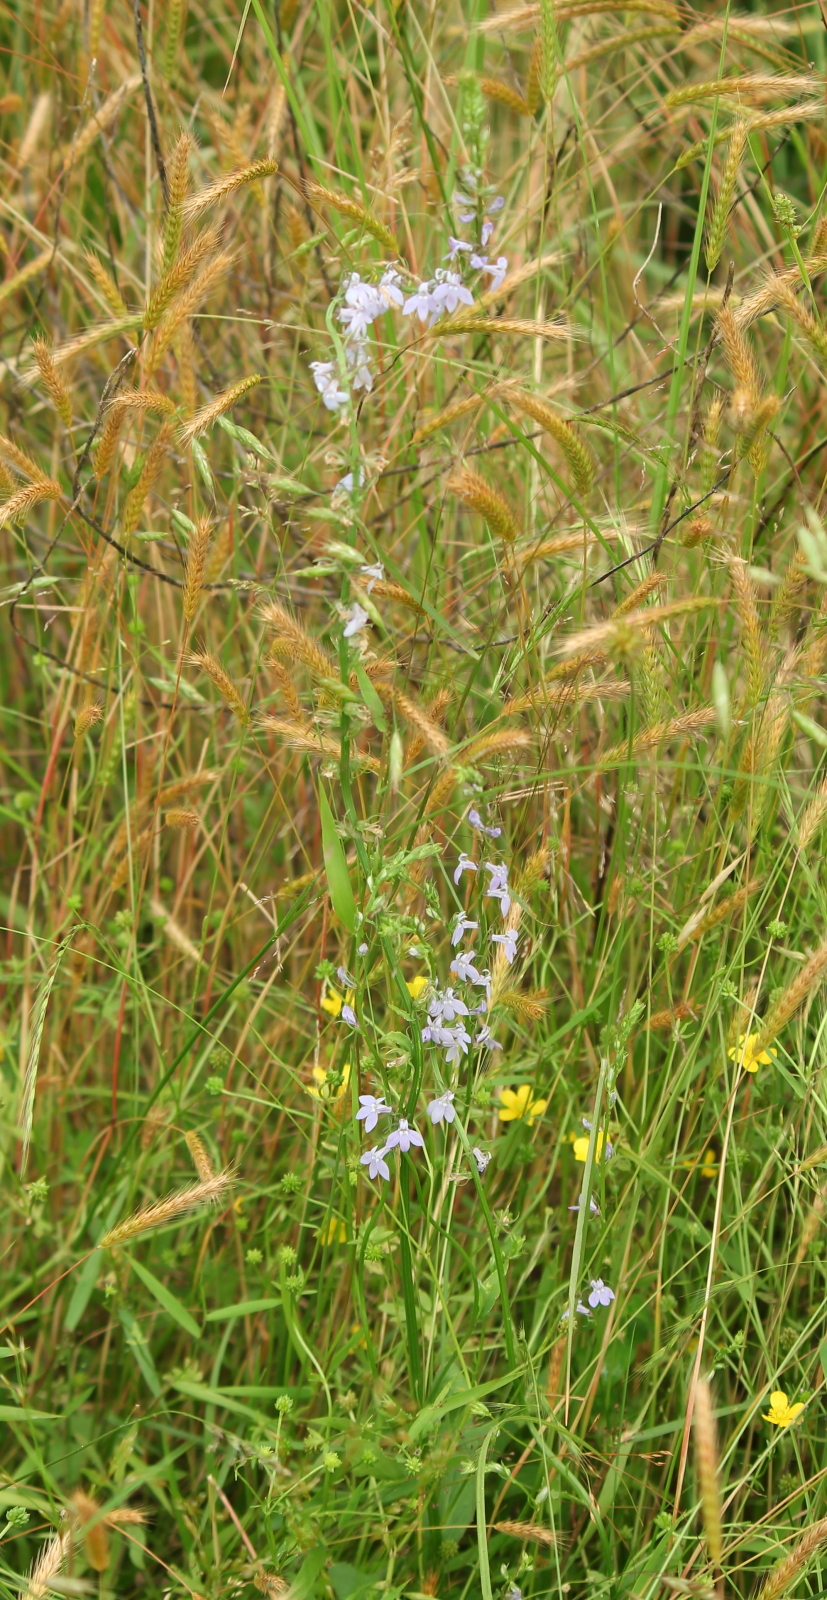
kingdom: Plantae
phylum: Tracheophyta
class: Magnoliopsida
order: Asterales
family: Campanulaceae
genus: Lobelia
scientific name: Lobelia spicata
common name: Pale-spike lobelia
